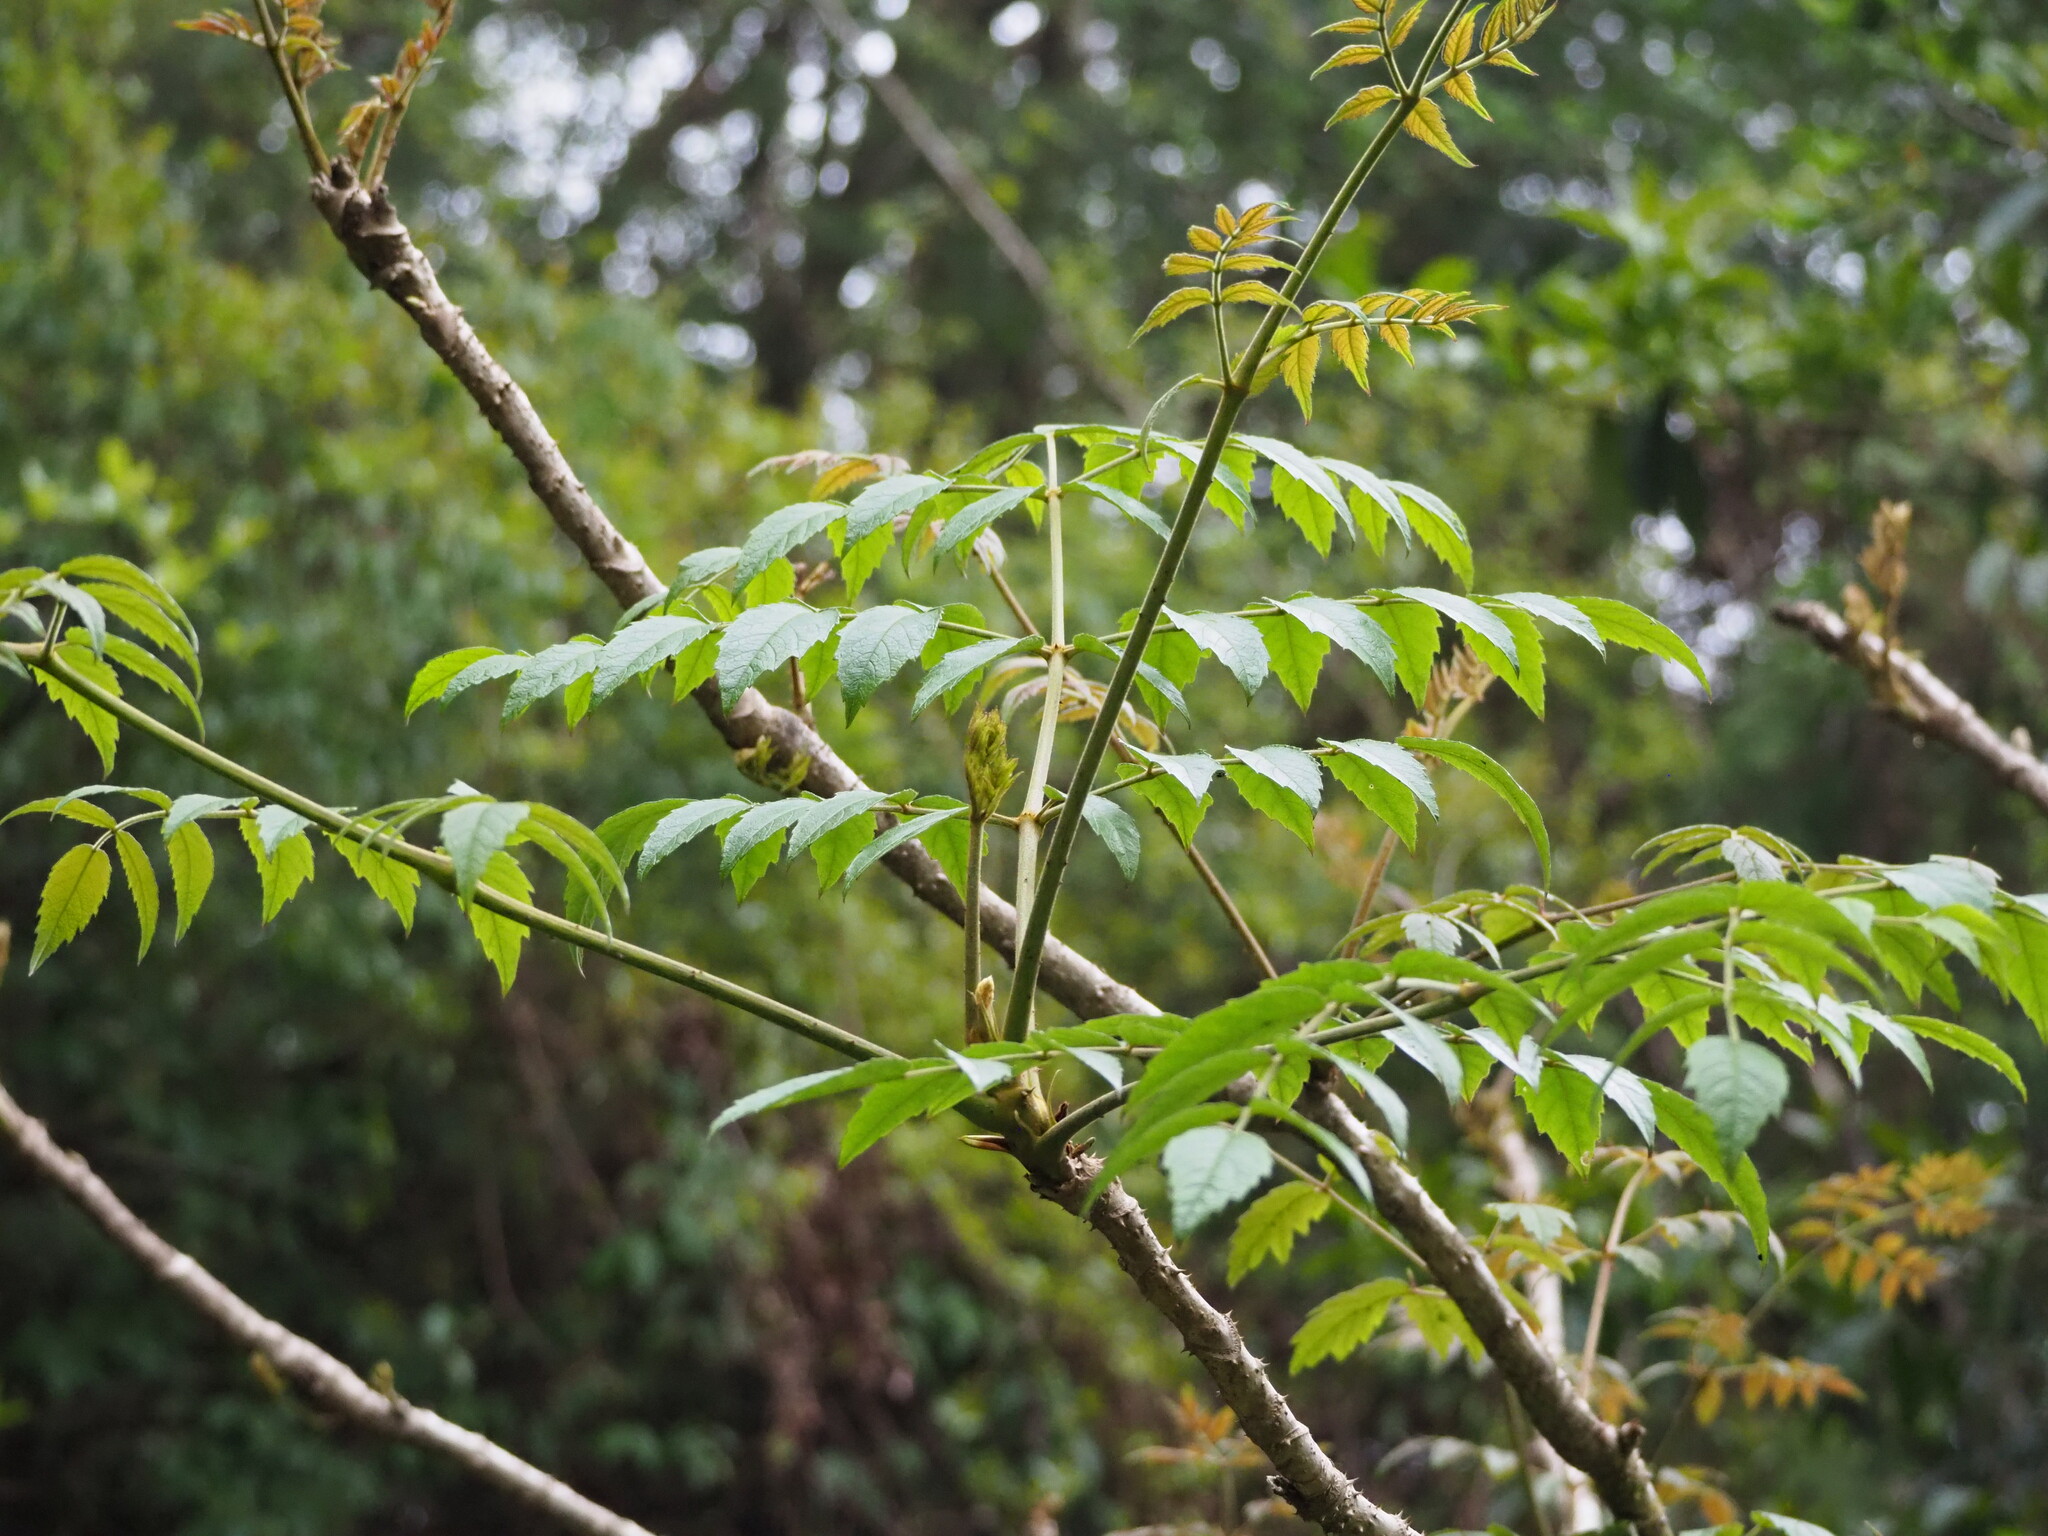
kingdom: Plantae
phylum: Tracheophyta
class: Magnoliopsida
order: Apiales
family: Araliaceae
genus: Aralia
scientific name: Aralia decaisneana
